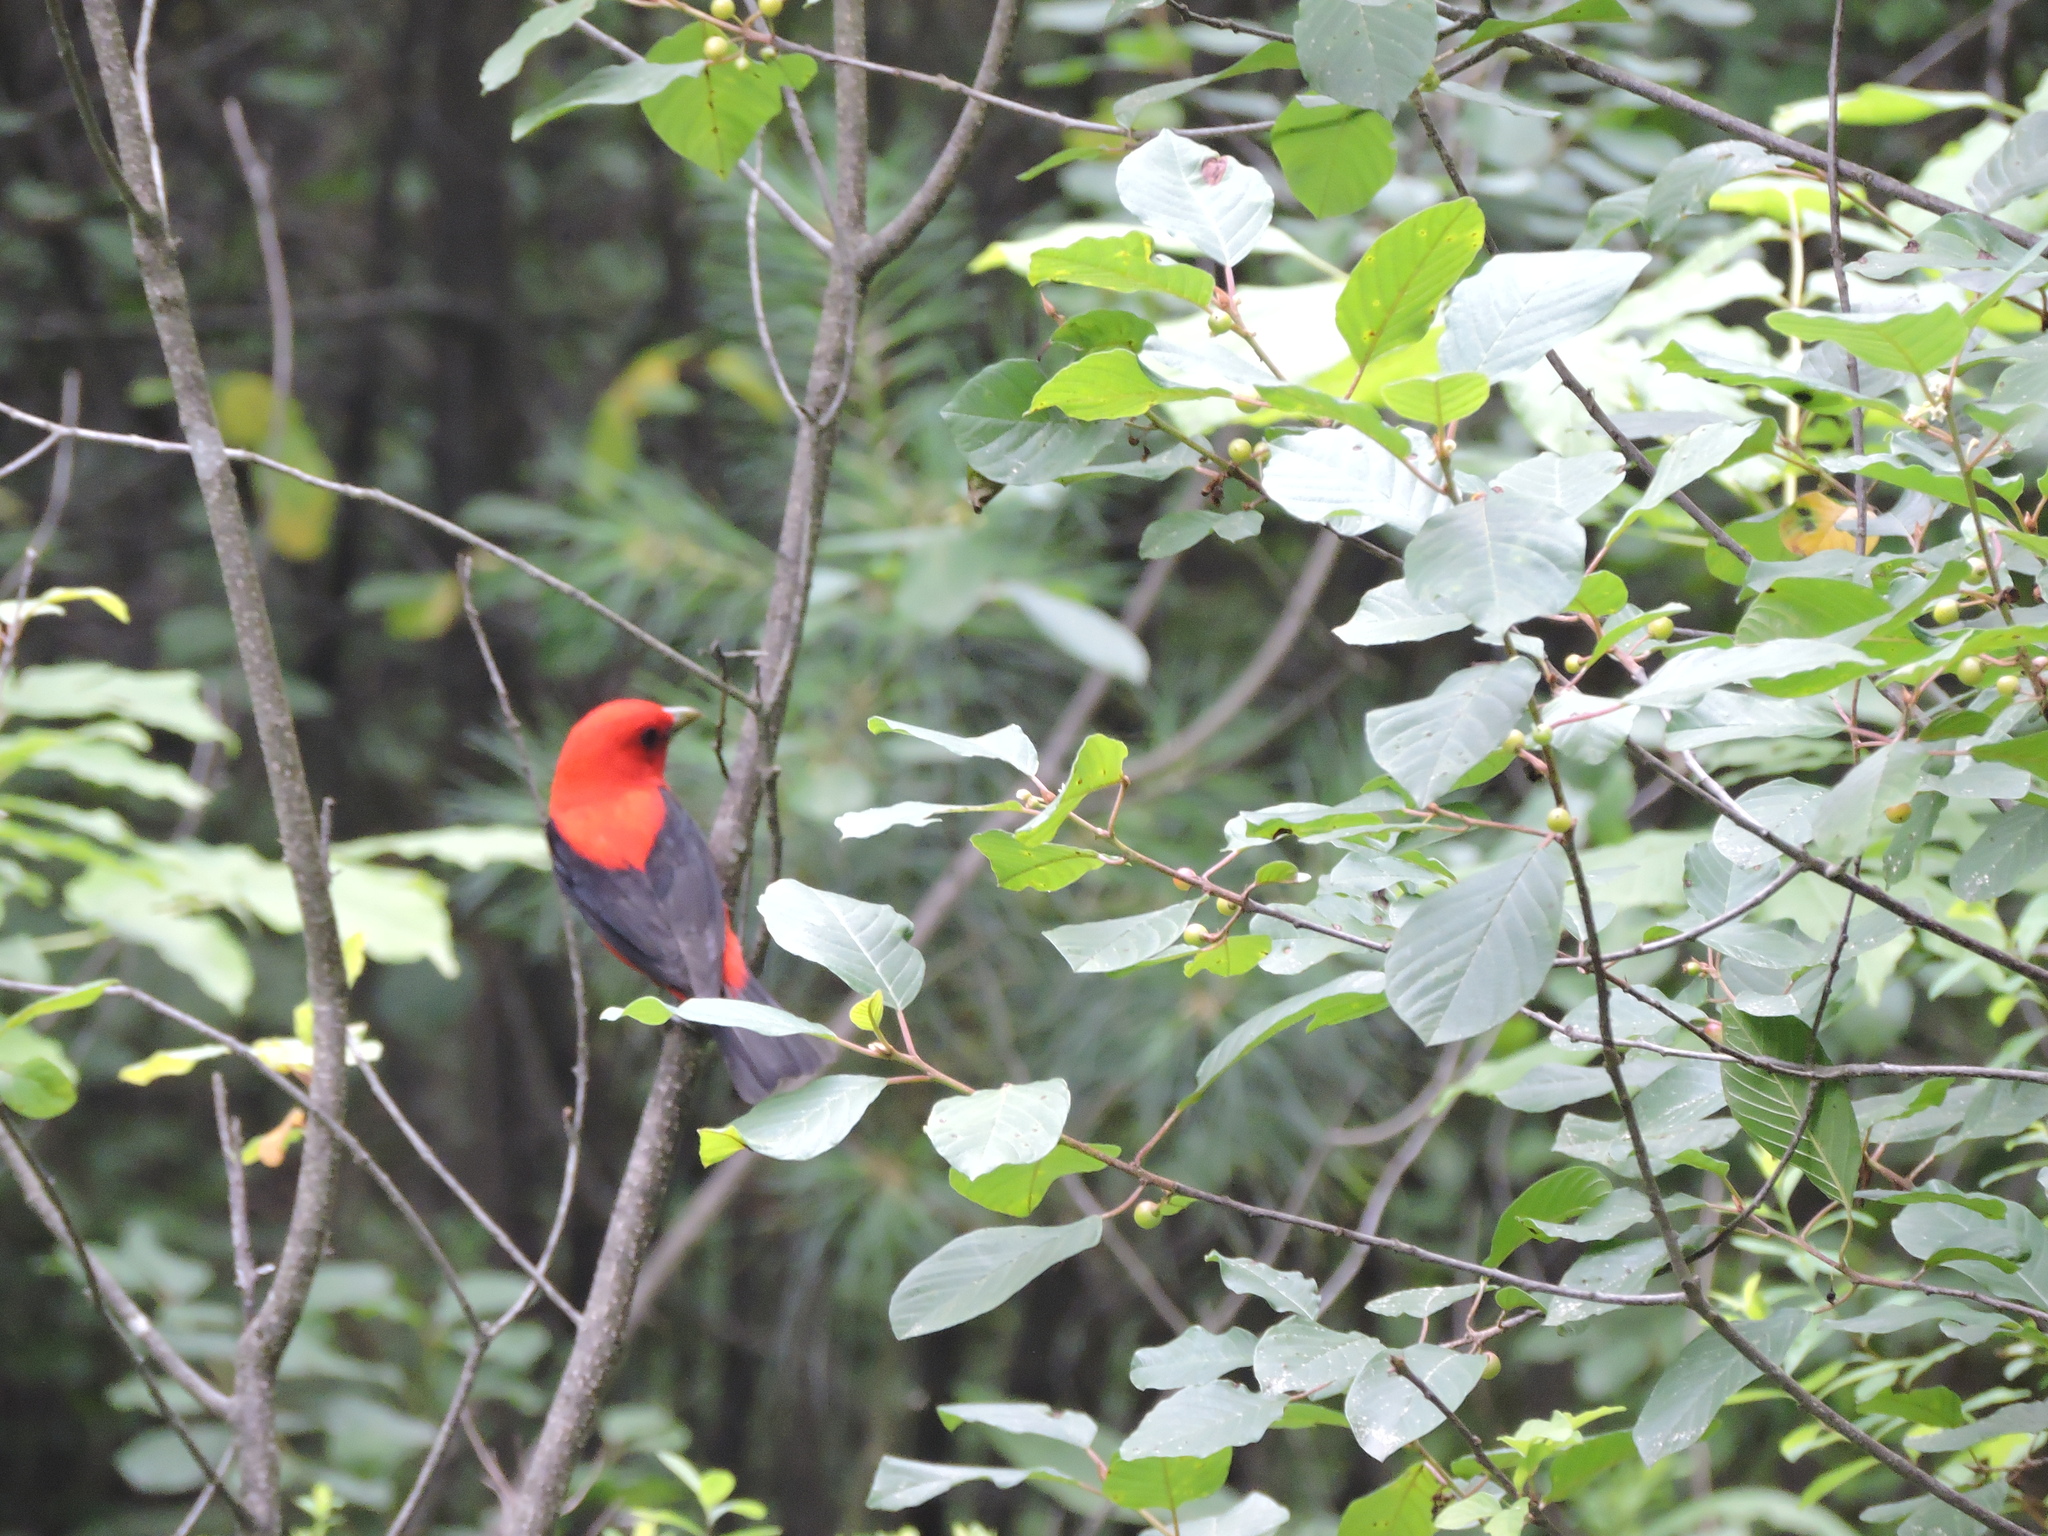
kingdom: Animalia
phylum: Chordata
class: Aves
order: Passeriformes
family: Cardinalidae
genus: Piranga
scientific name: Piranga olivacea
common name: Scarlet tanager
